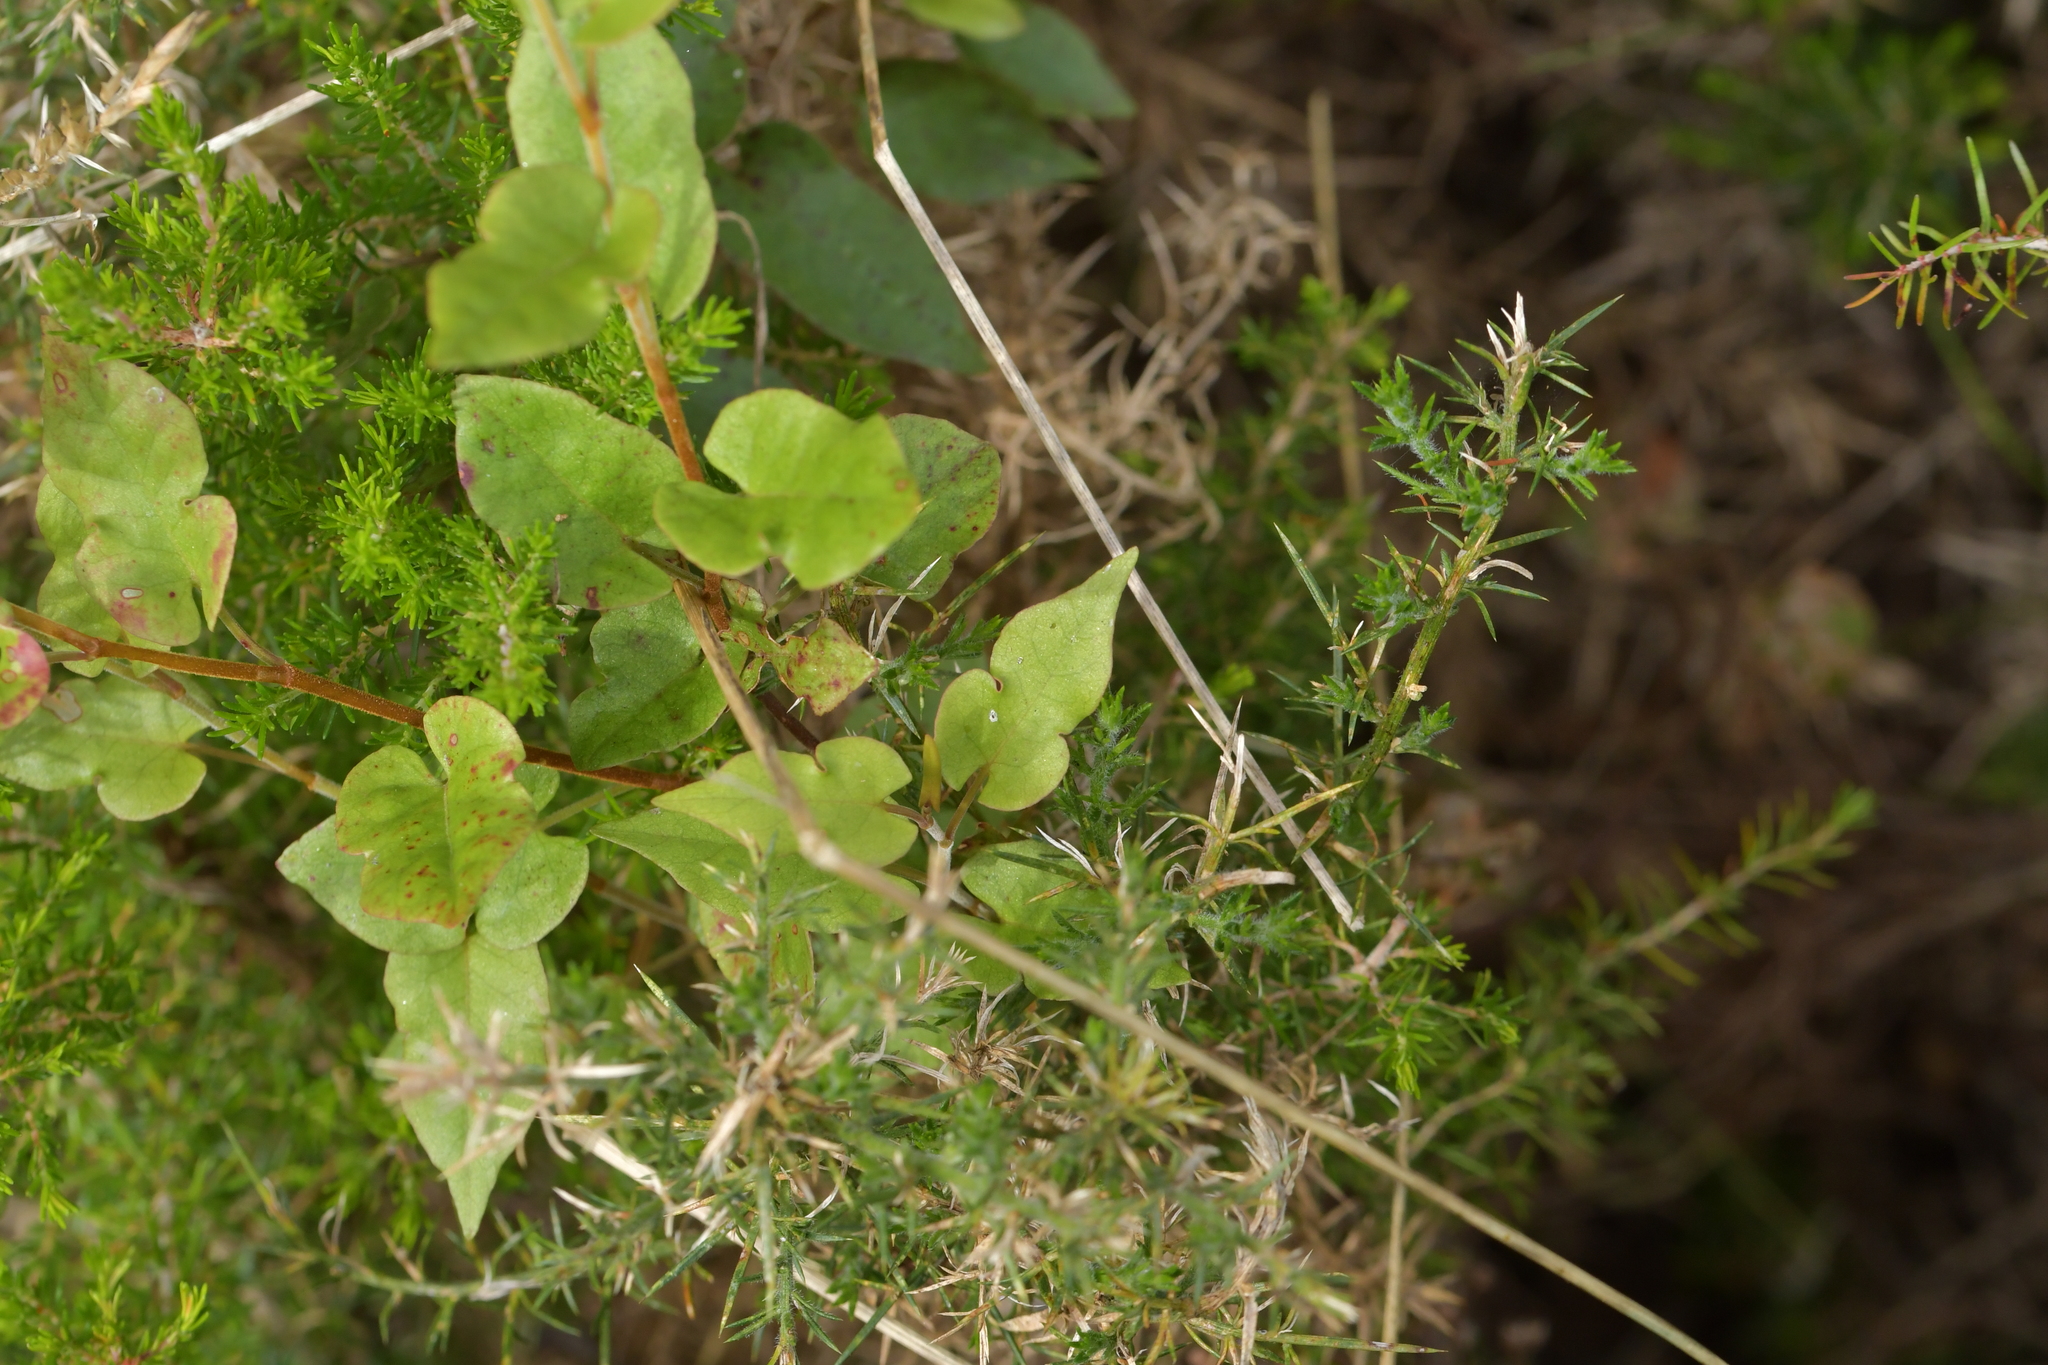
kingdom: Plantae
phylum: Tracheophyta
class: Magnoliopsida
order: Caryophyllales
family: Polygonaceae
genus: Muehlenbeckia
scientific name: Muehlenbeckia australis
